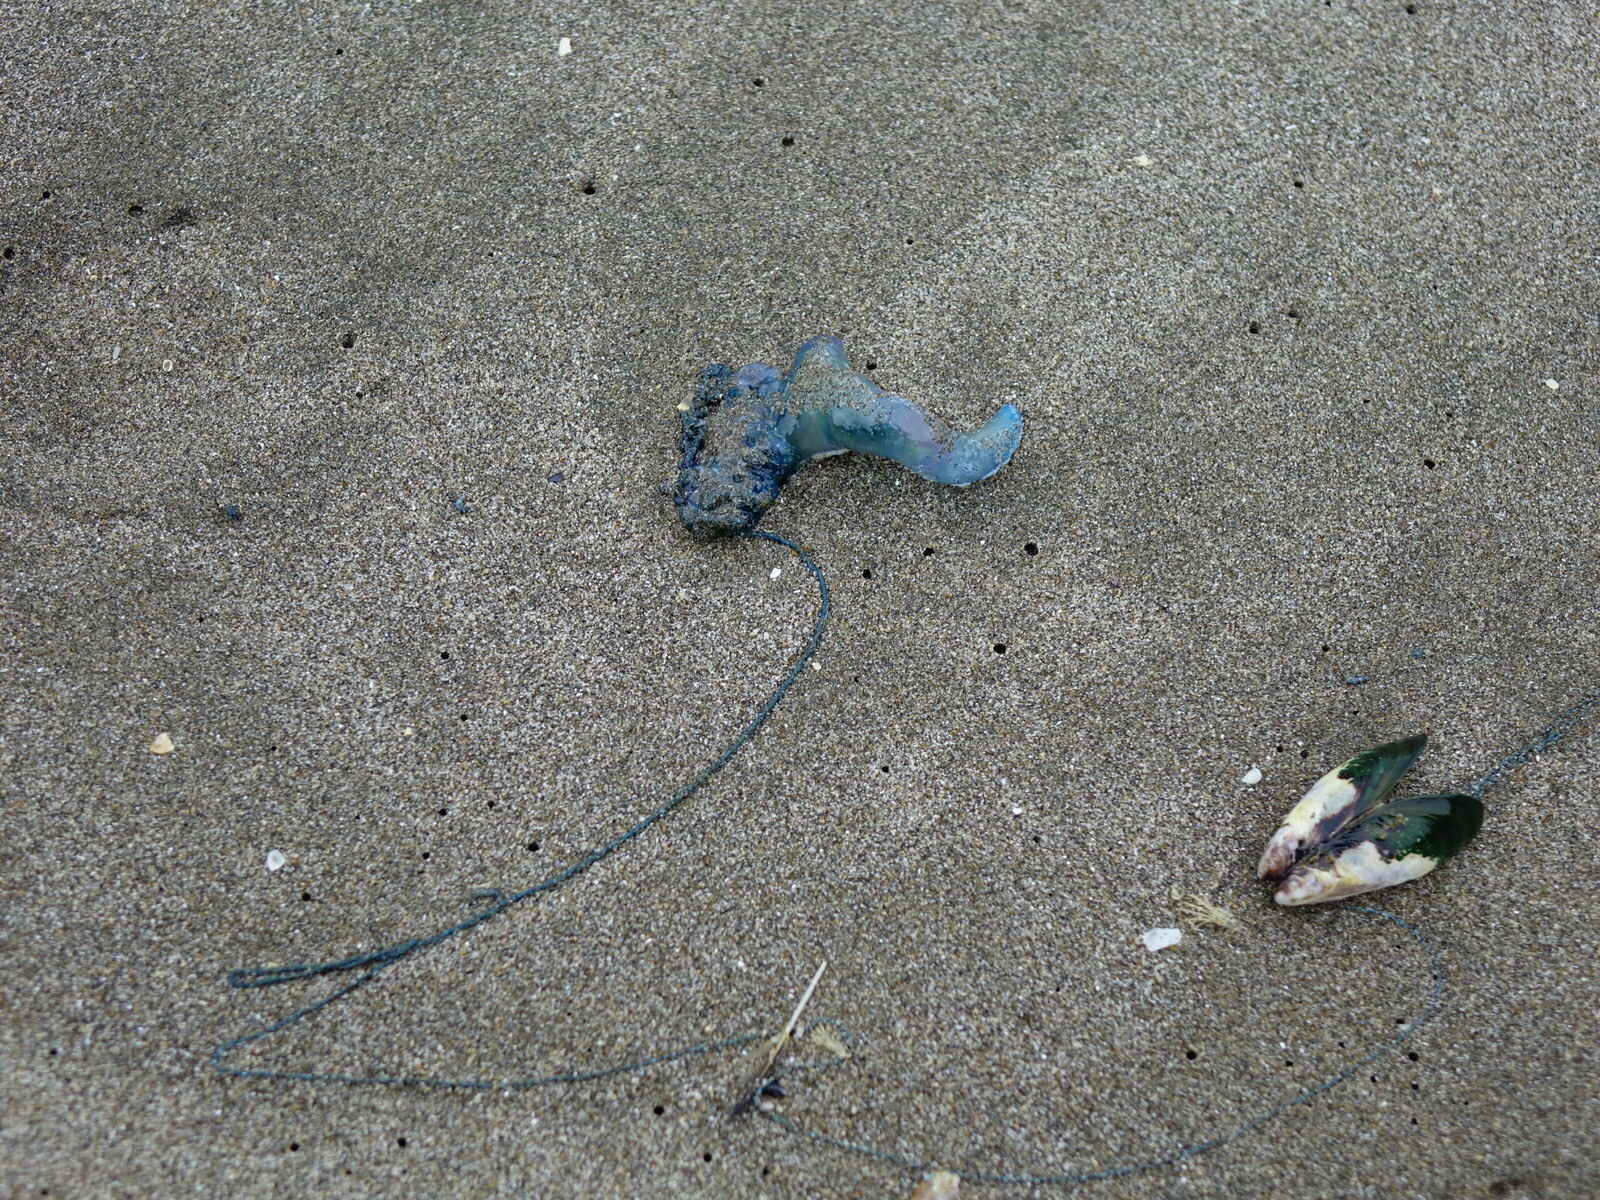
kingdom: Animalia
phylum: Cnidaria
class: Hydrozoa
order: Siphonophorae
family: Physaliidae
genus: Physalia
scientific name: Physalia physalis
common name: Portuguese man-of-war
